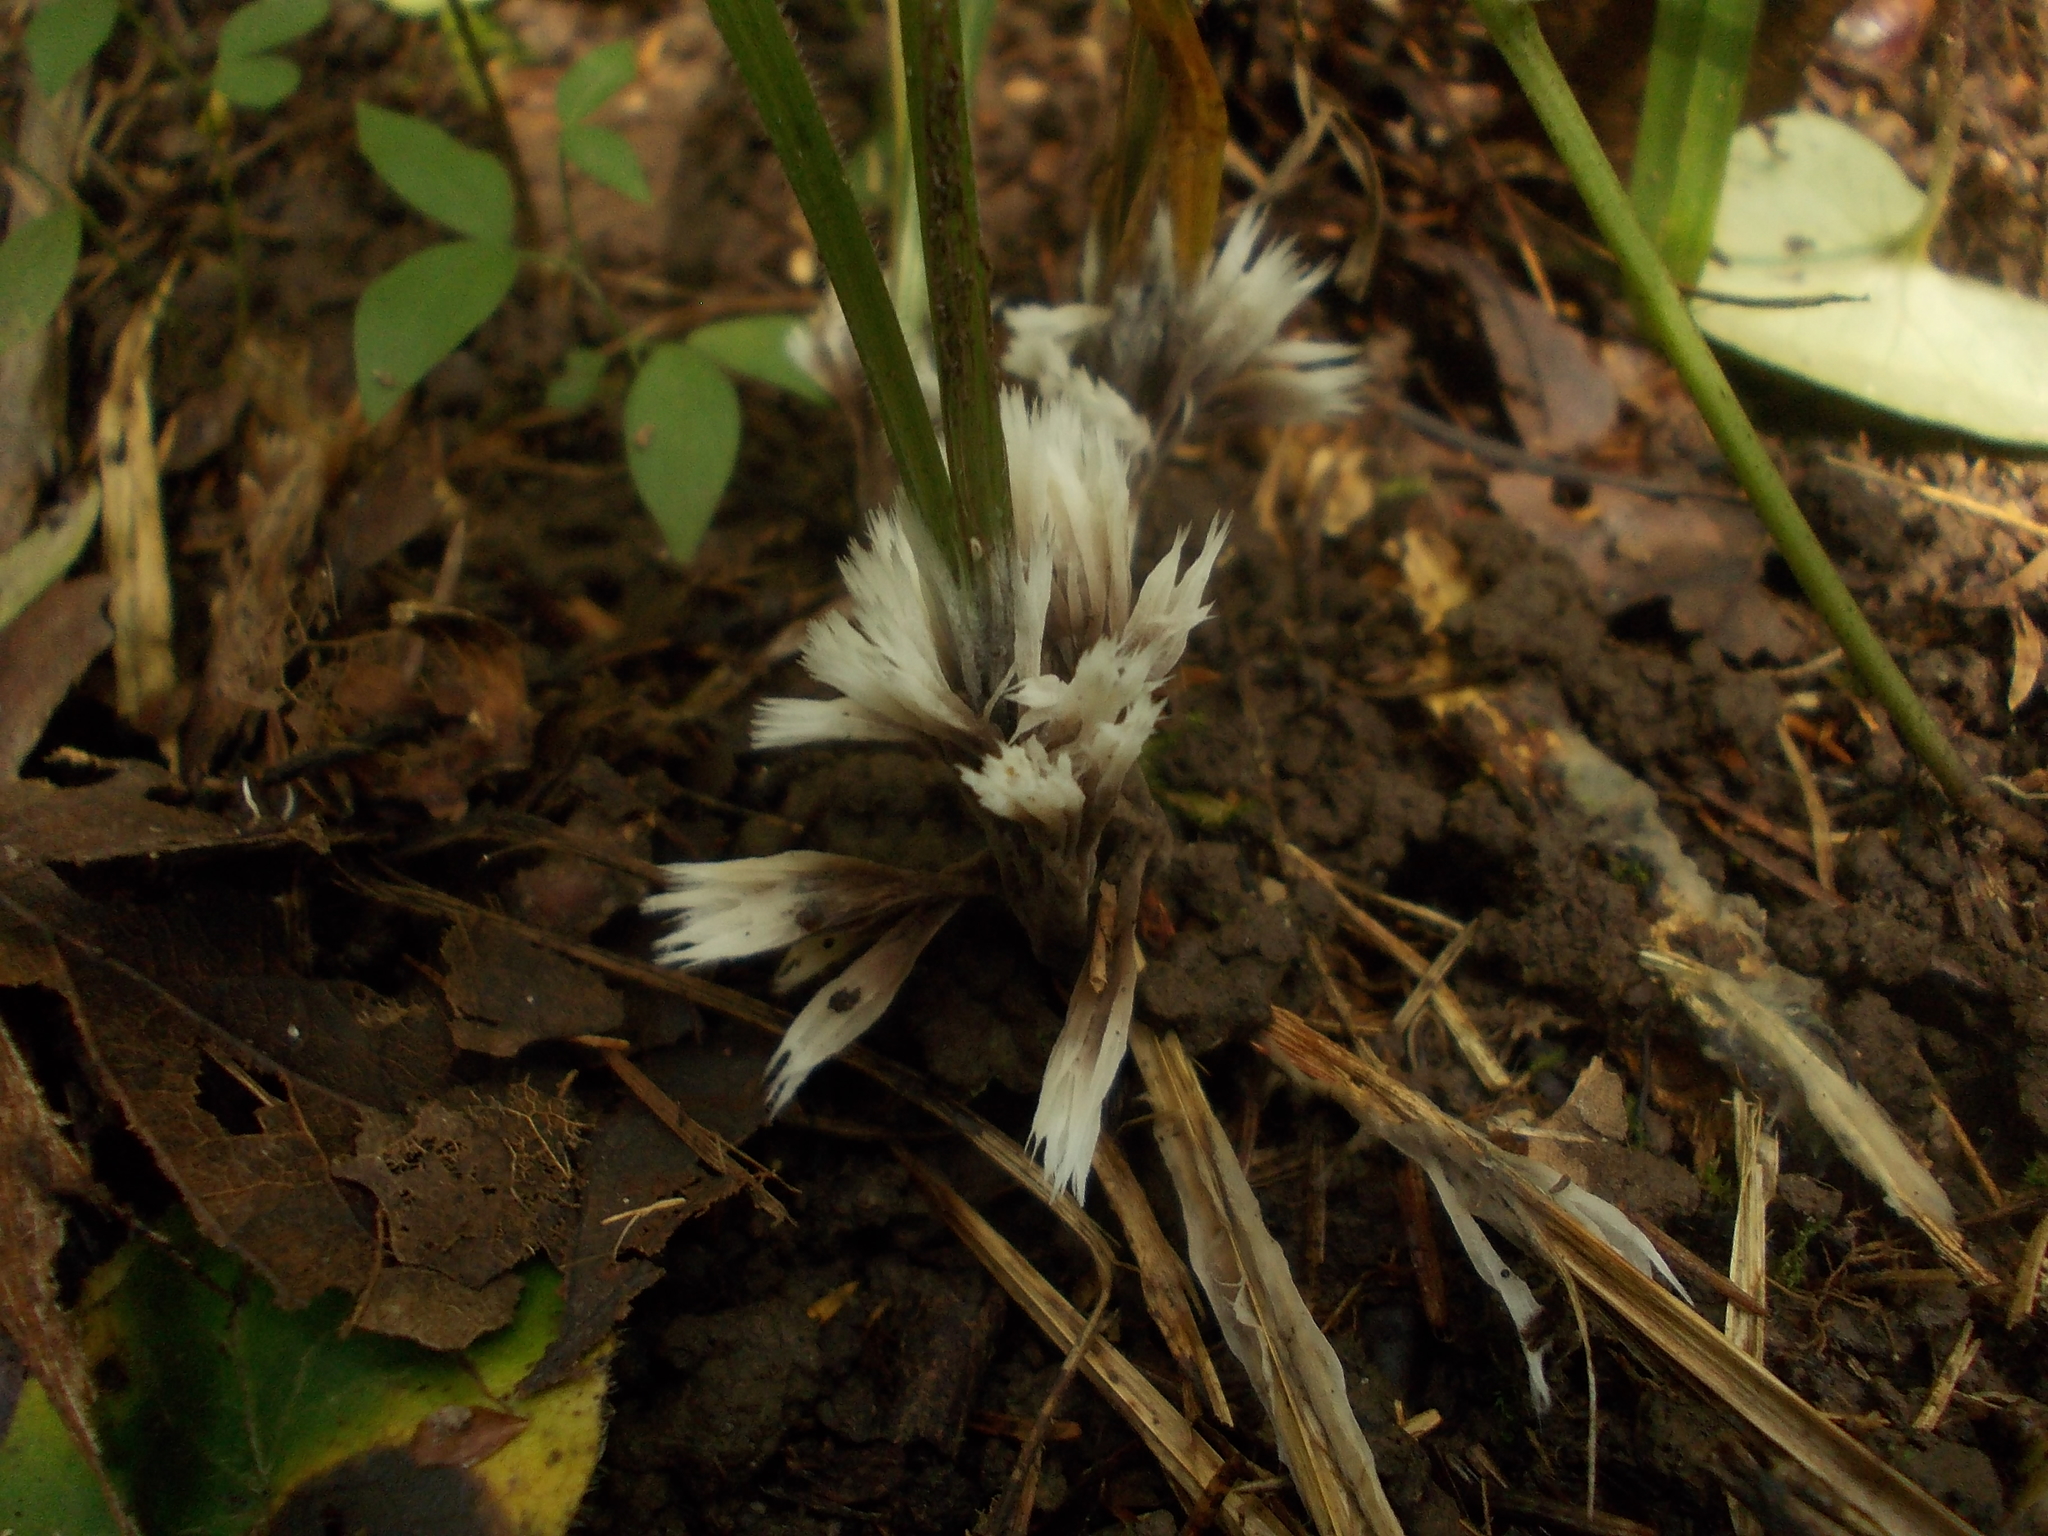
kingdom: Fungi
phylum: Basidiomycota
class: Agaricomycetes
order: Thelephorales
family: Thelephoraceae
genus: Thelephora
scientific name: Thelephora penicillata
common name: Urchin earthfan
